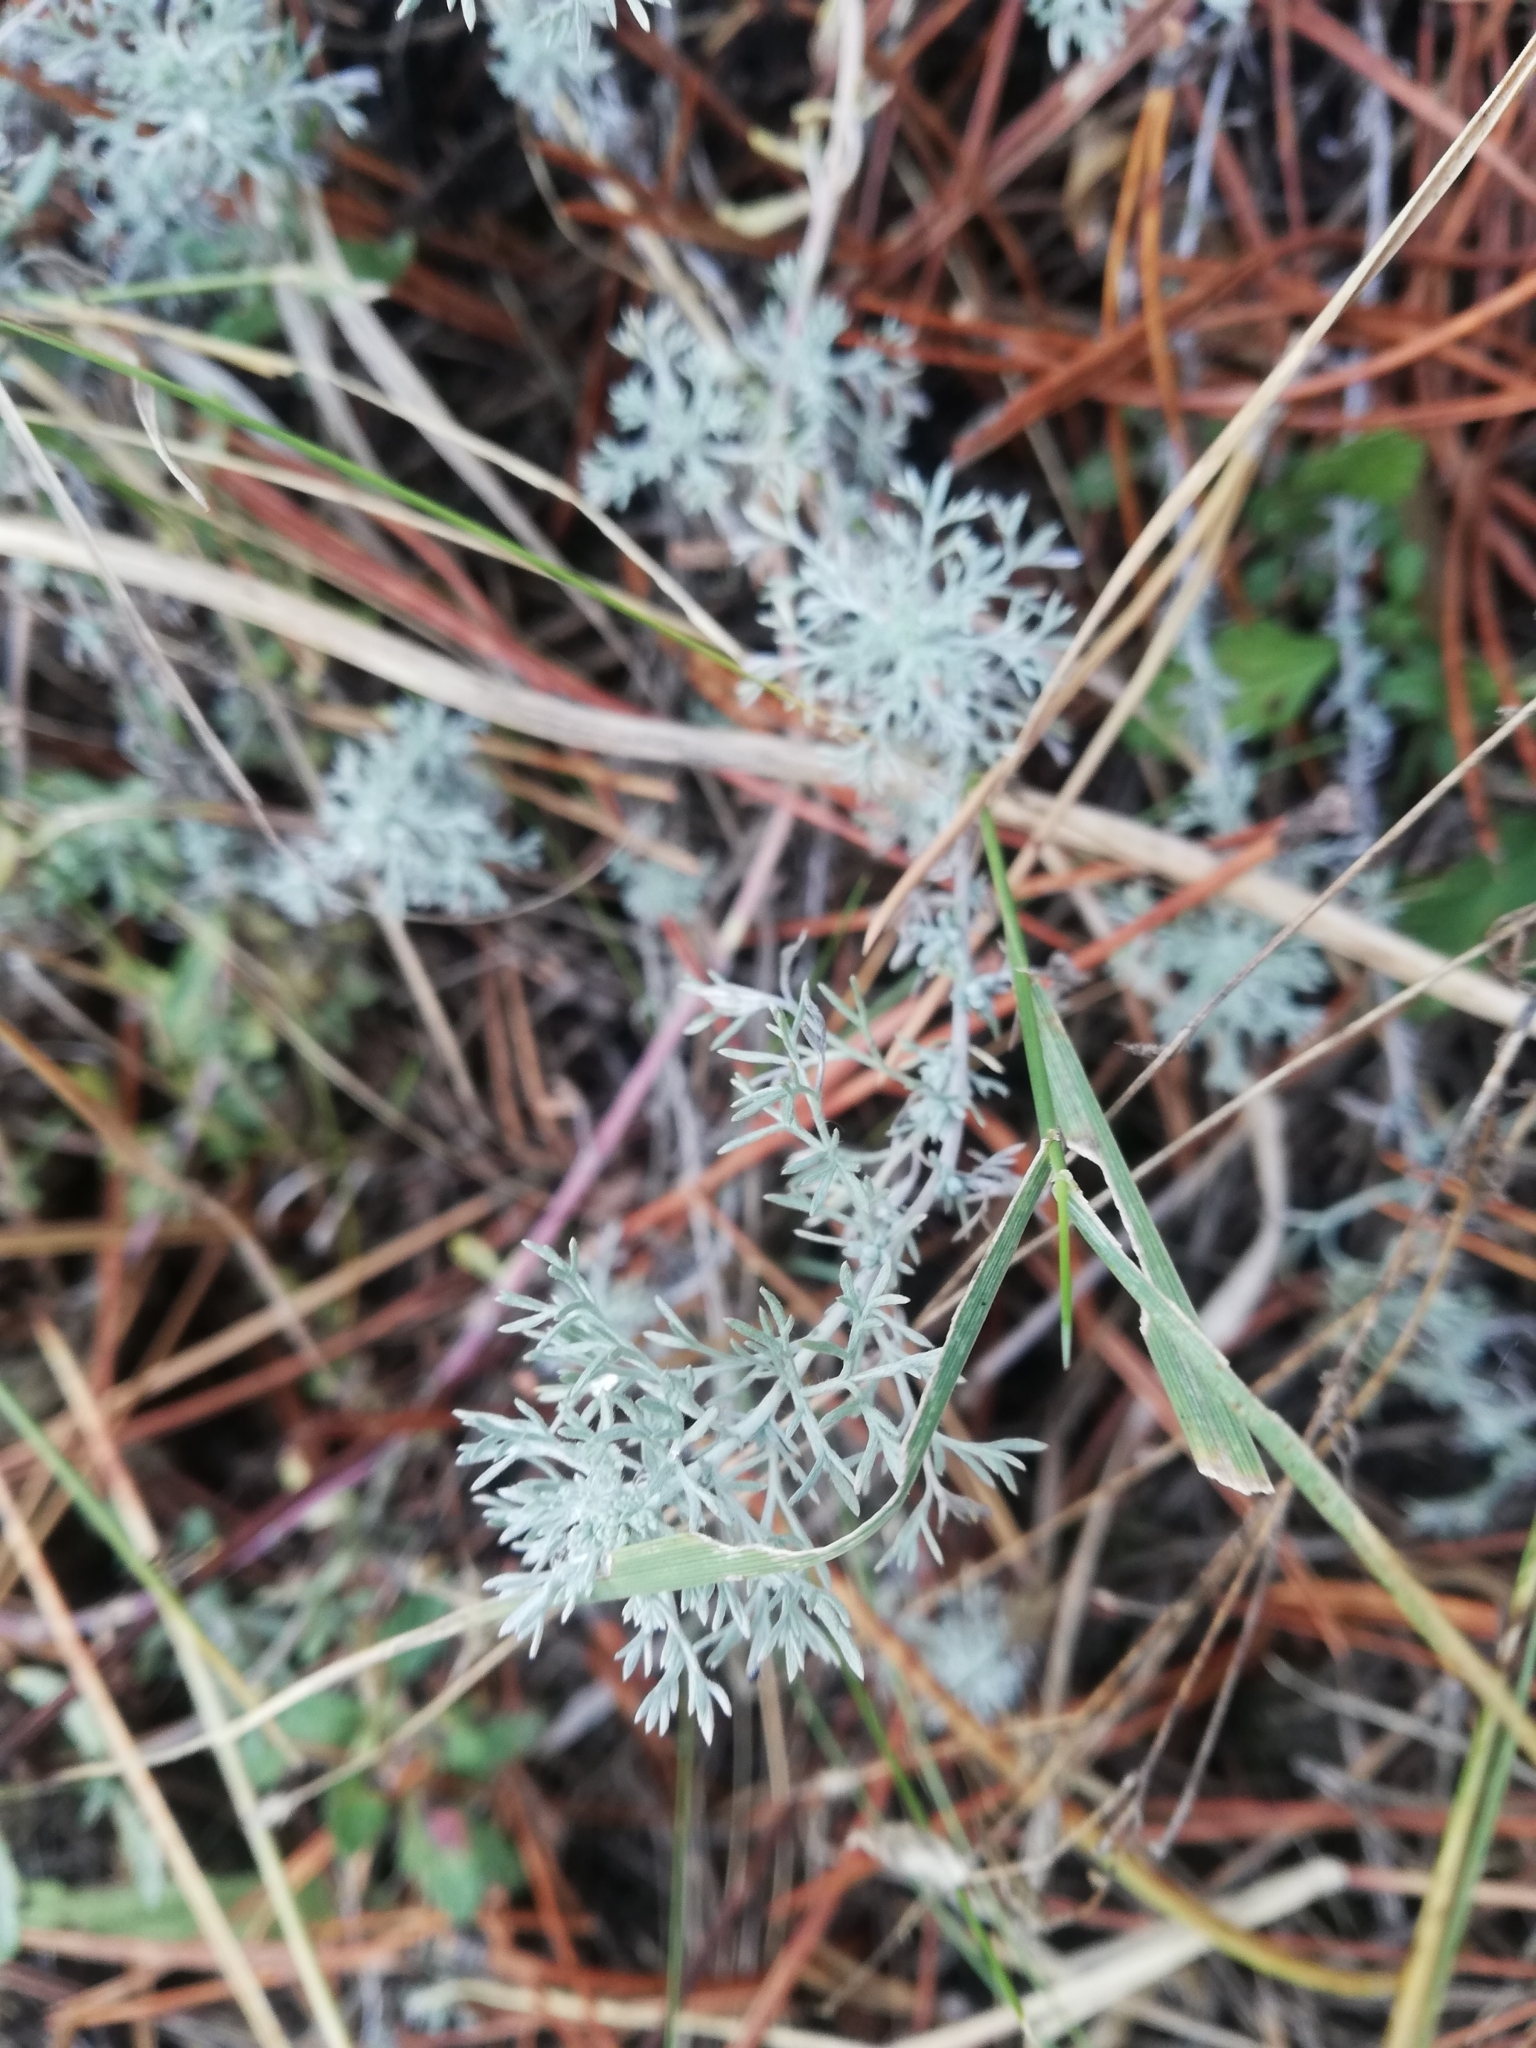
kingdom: Plantae
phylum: Tracheophyta
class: Magnoliopsida
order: Asterales
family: Asteraceae
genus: Artemisia
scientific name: Artemisia austriaca
